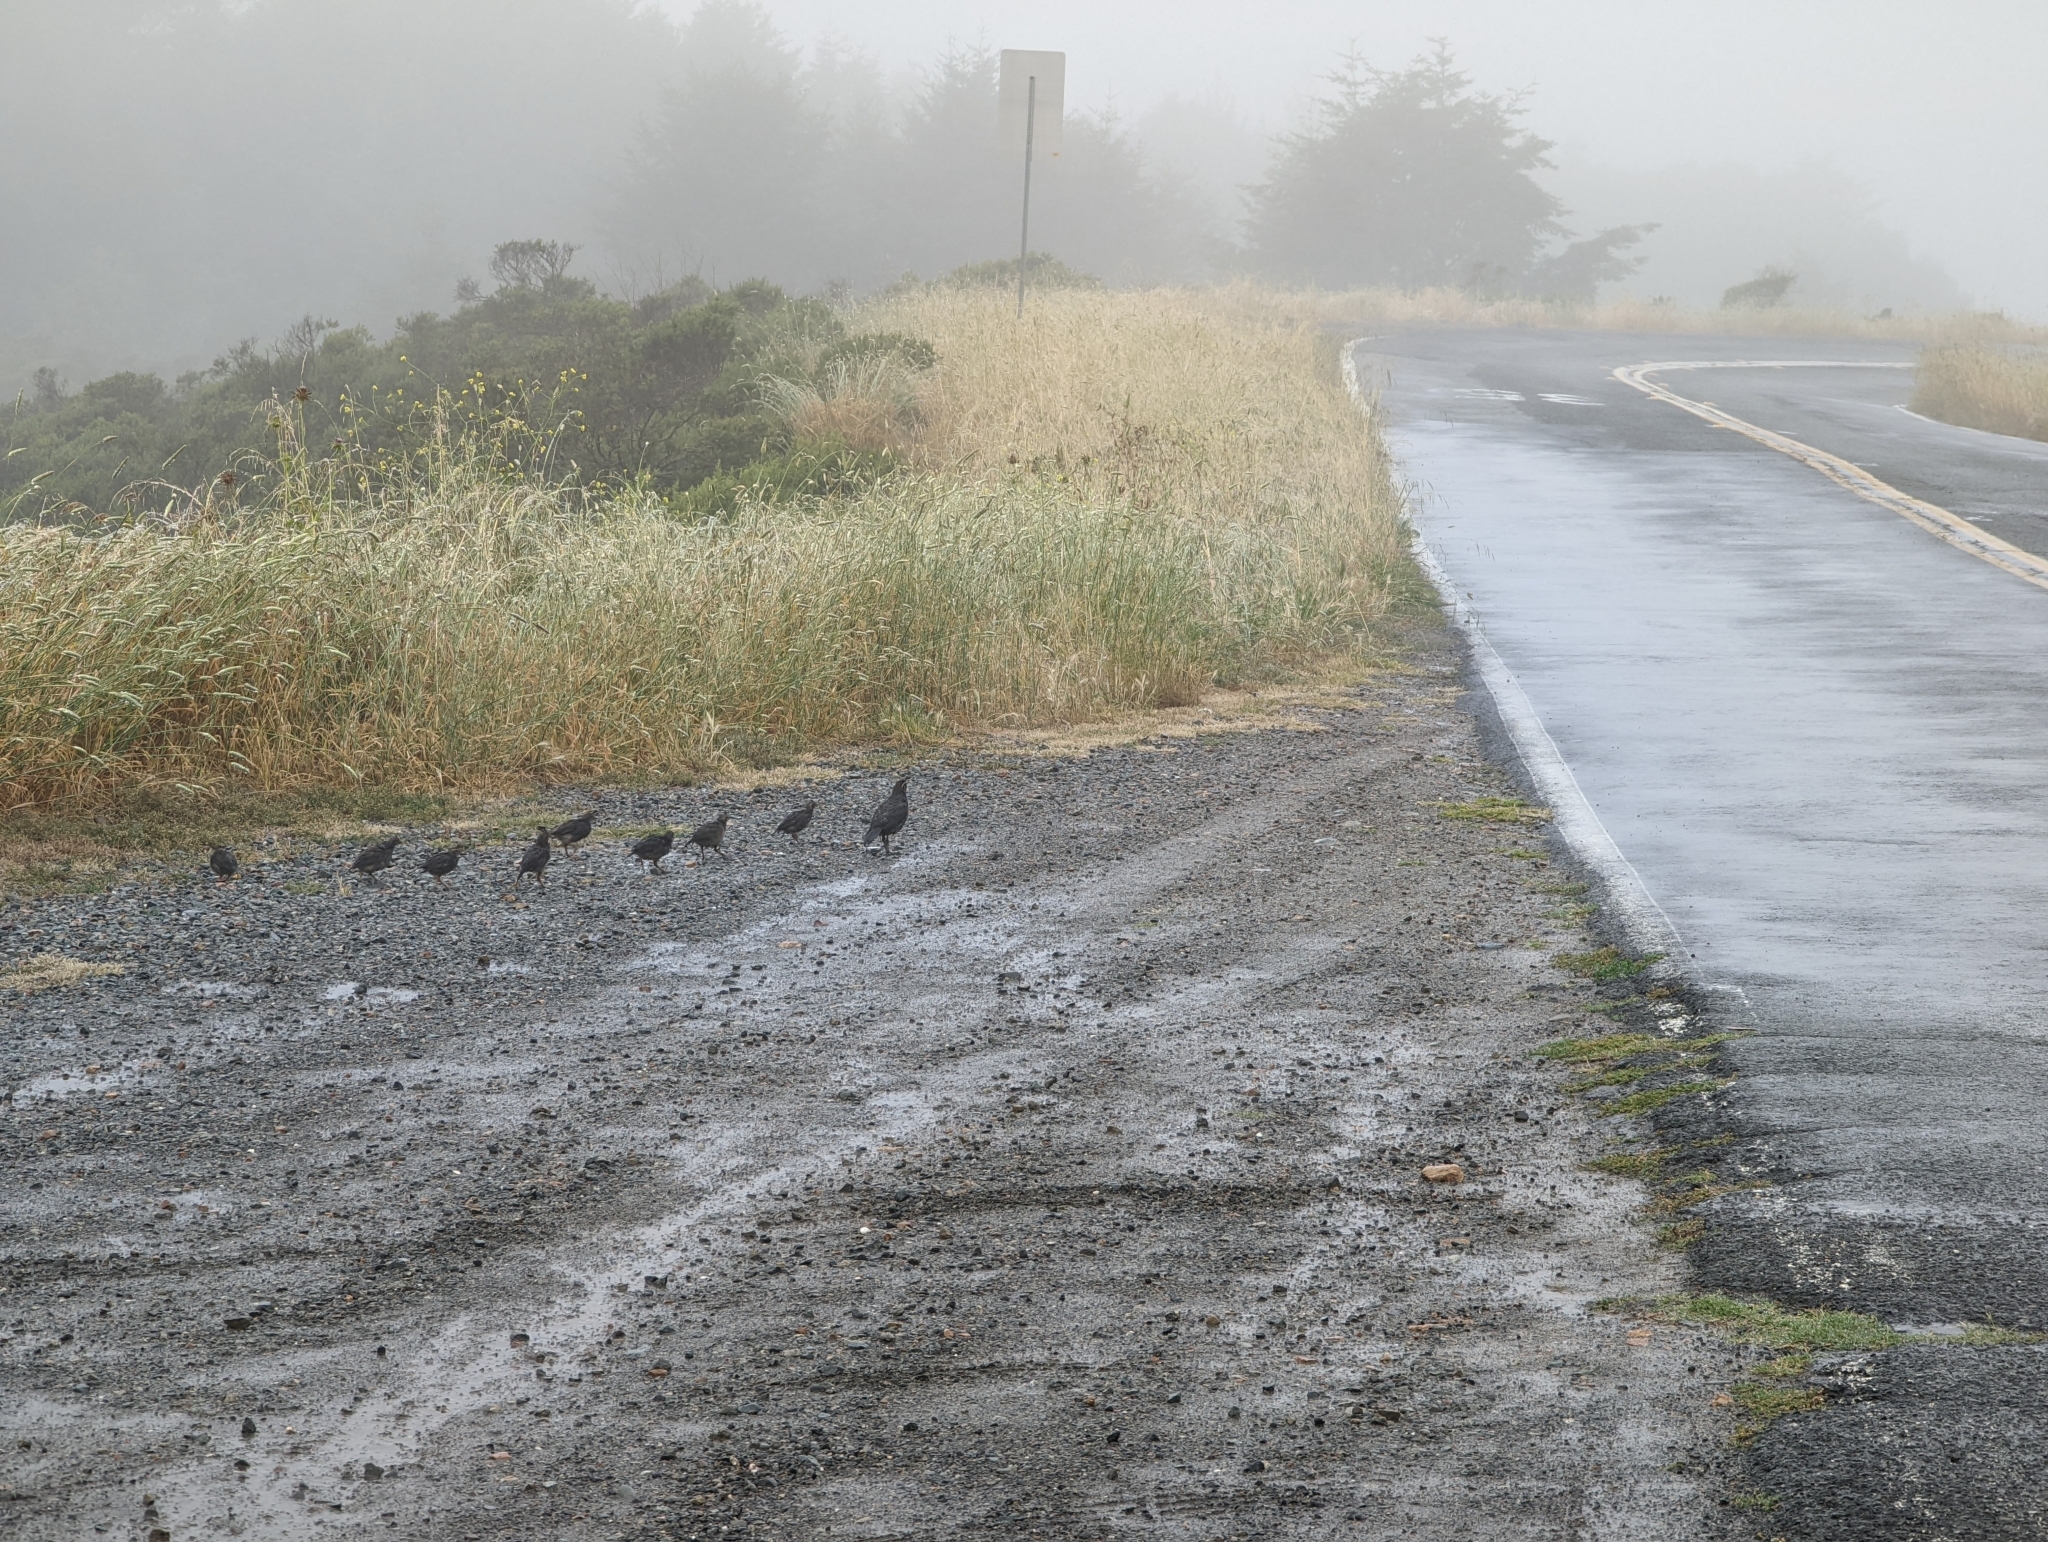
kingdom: Animalia
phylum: Chordata
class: Aves
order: Galliformes
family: Odontophoridae
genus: Callipepla
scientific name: Callipepla californica
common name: California quail
